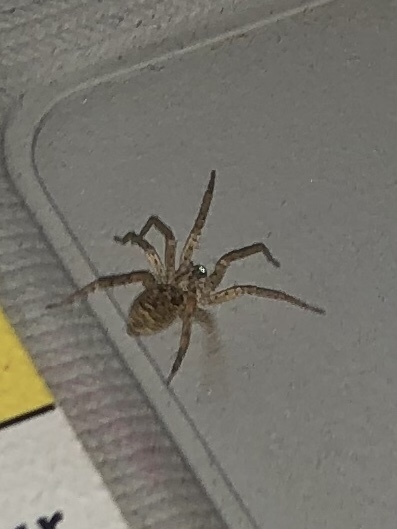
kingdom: Animalia
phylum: Arthropoda
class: Arachnida
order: Araneae
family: Zoropsidae
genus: Zoropsis
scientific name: Zoropsis spinimana
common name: Zoropsid spider
